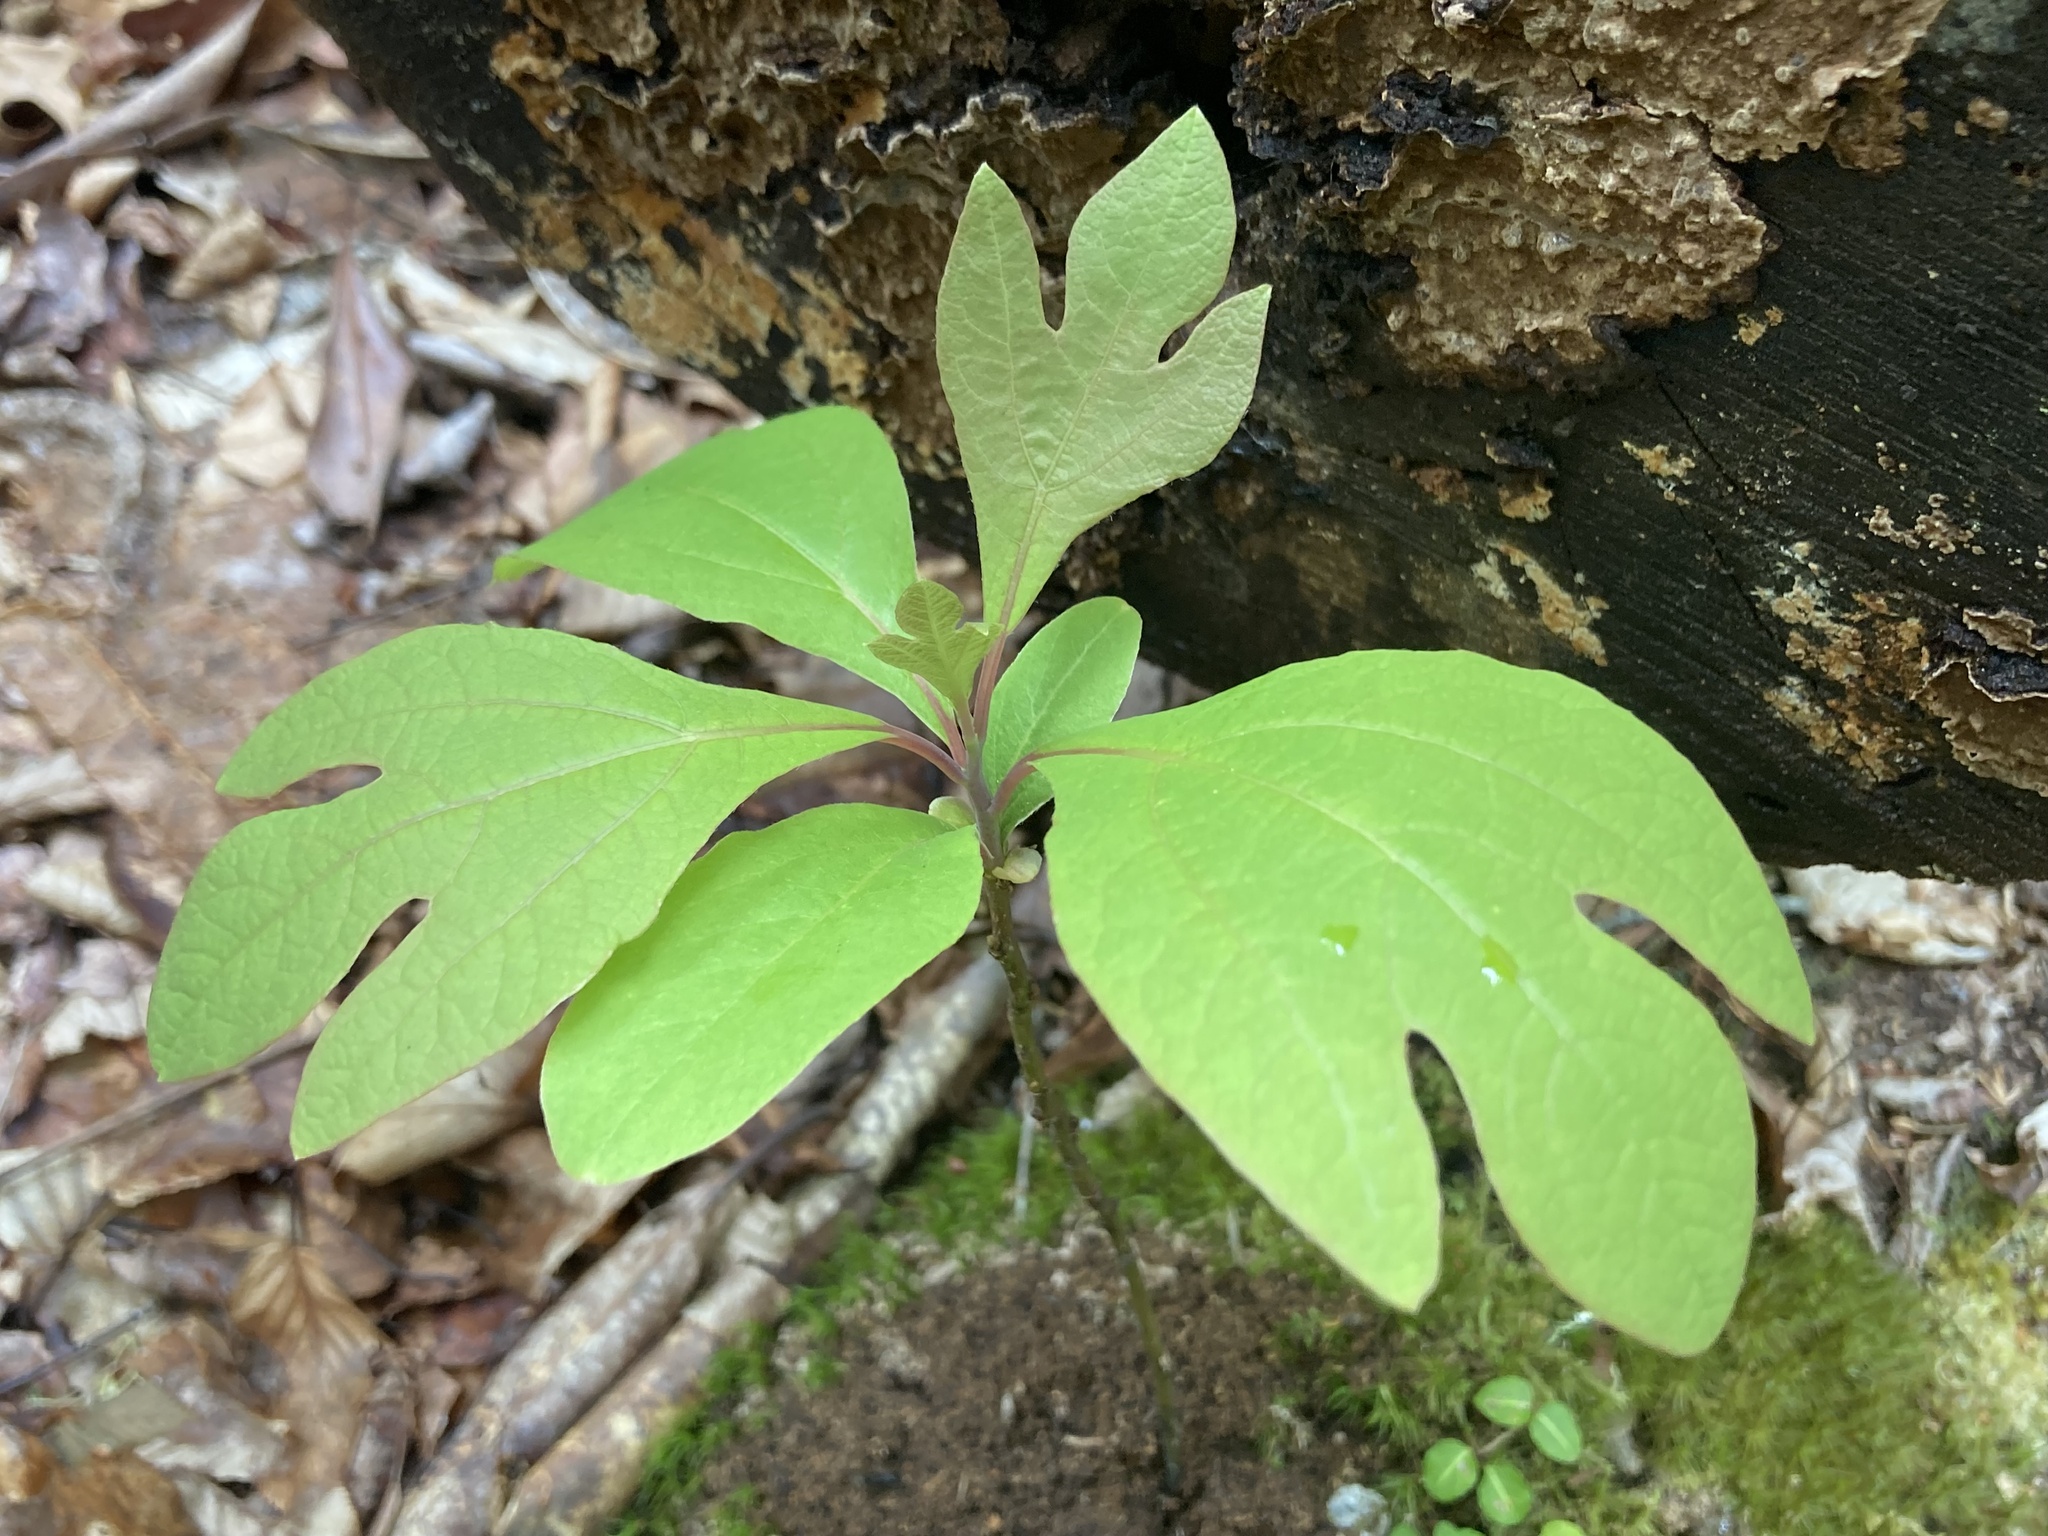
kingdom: Plantae
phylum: Tracheophyta
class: Magnoliopsida
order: Laurales
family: Lauraceae
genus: Sassafras
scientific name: Sassafras albidum
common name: Sassafras
